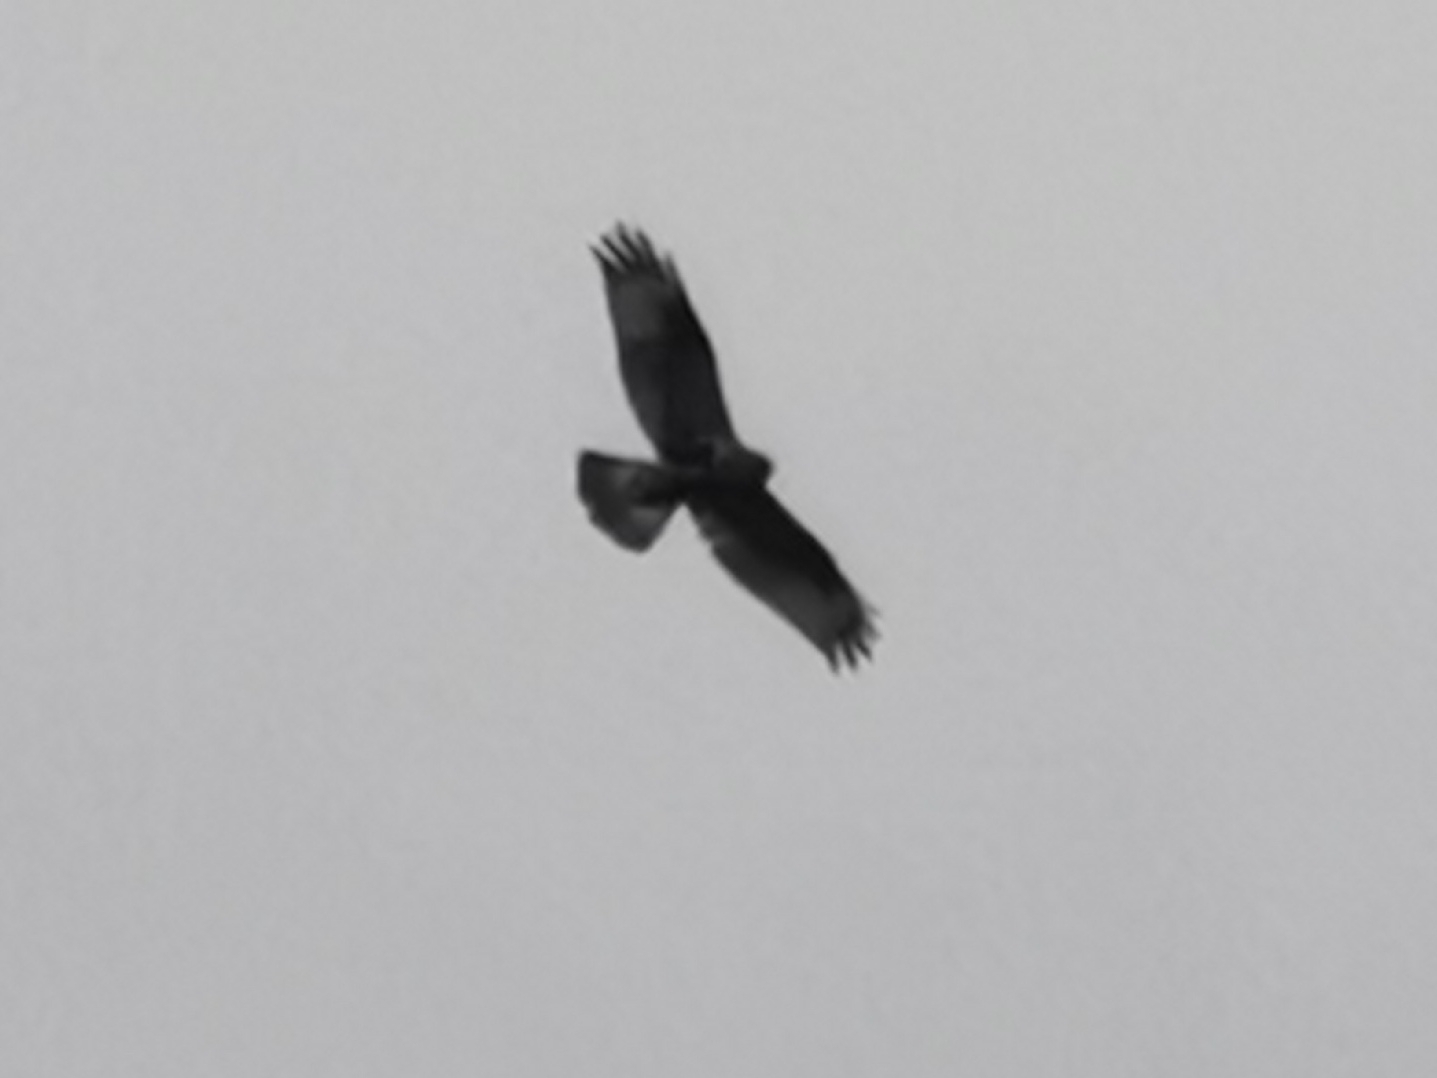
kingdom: Animalia
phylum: Chordata
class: Aves
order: Accipitriformes
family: Accipitridae
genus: Buteo
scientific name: Buteo lagopus
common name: Rough-legged buzzard
